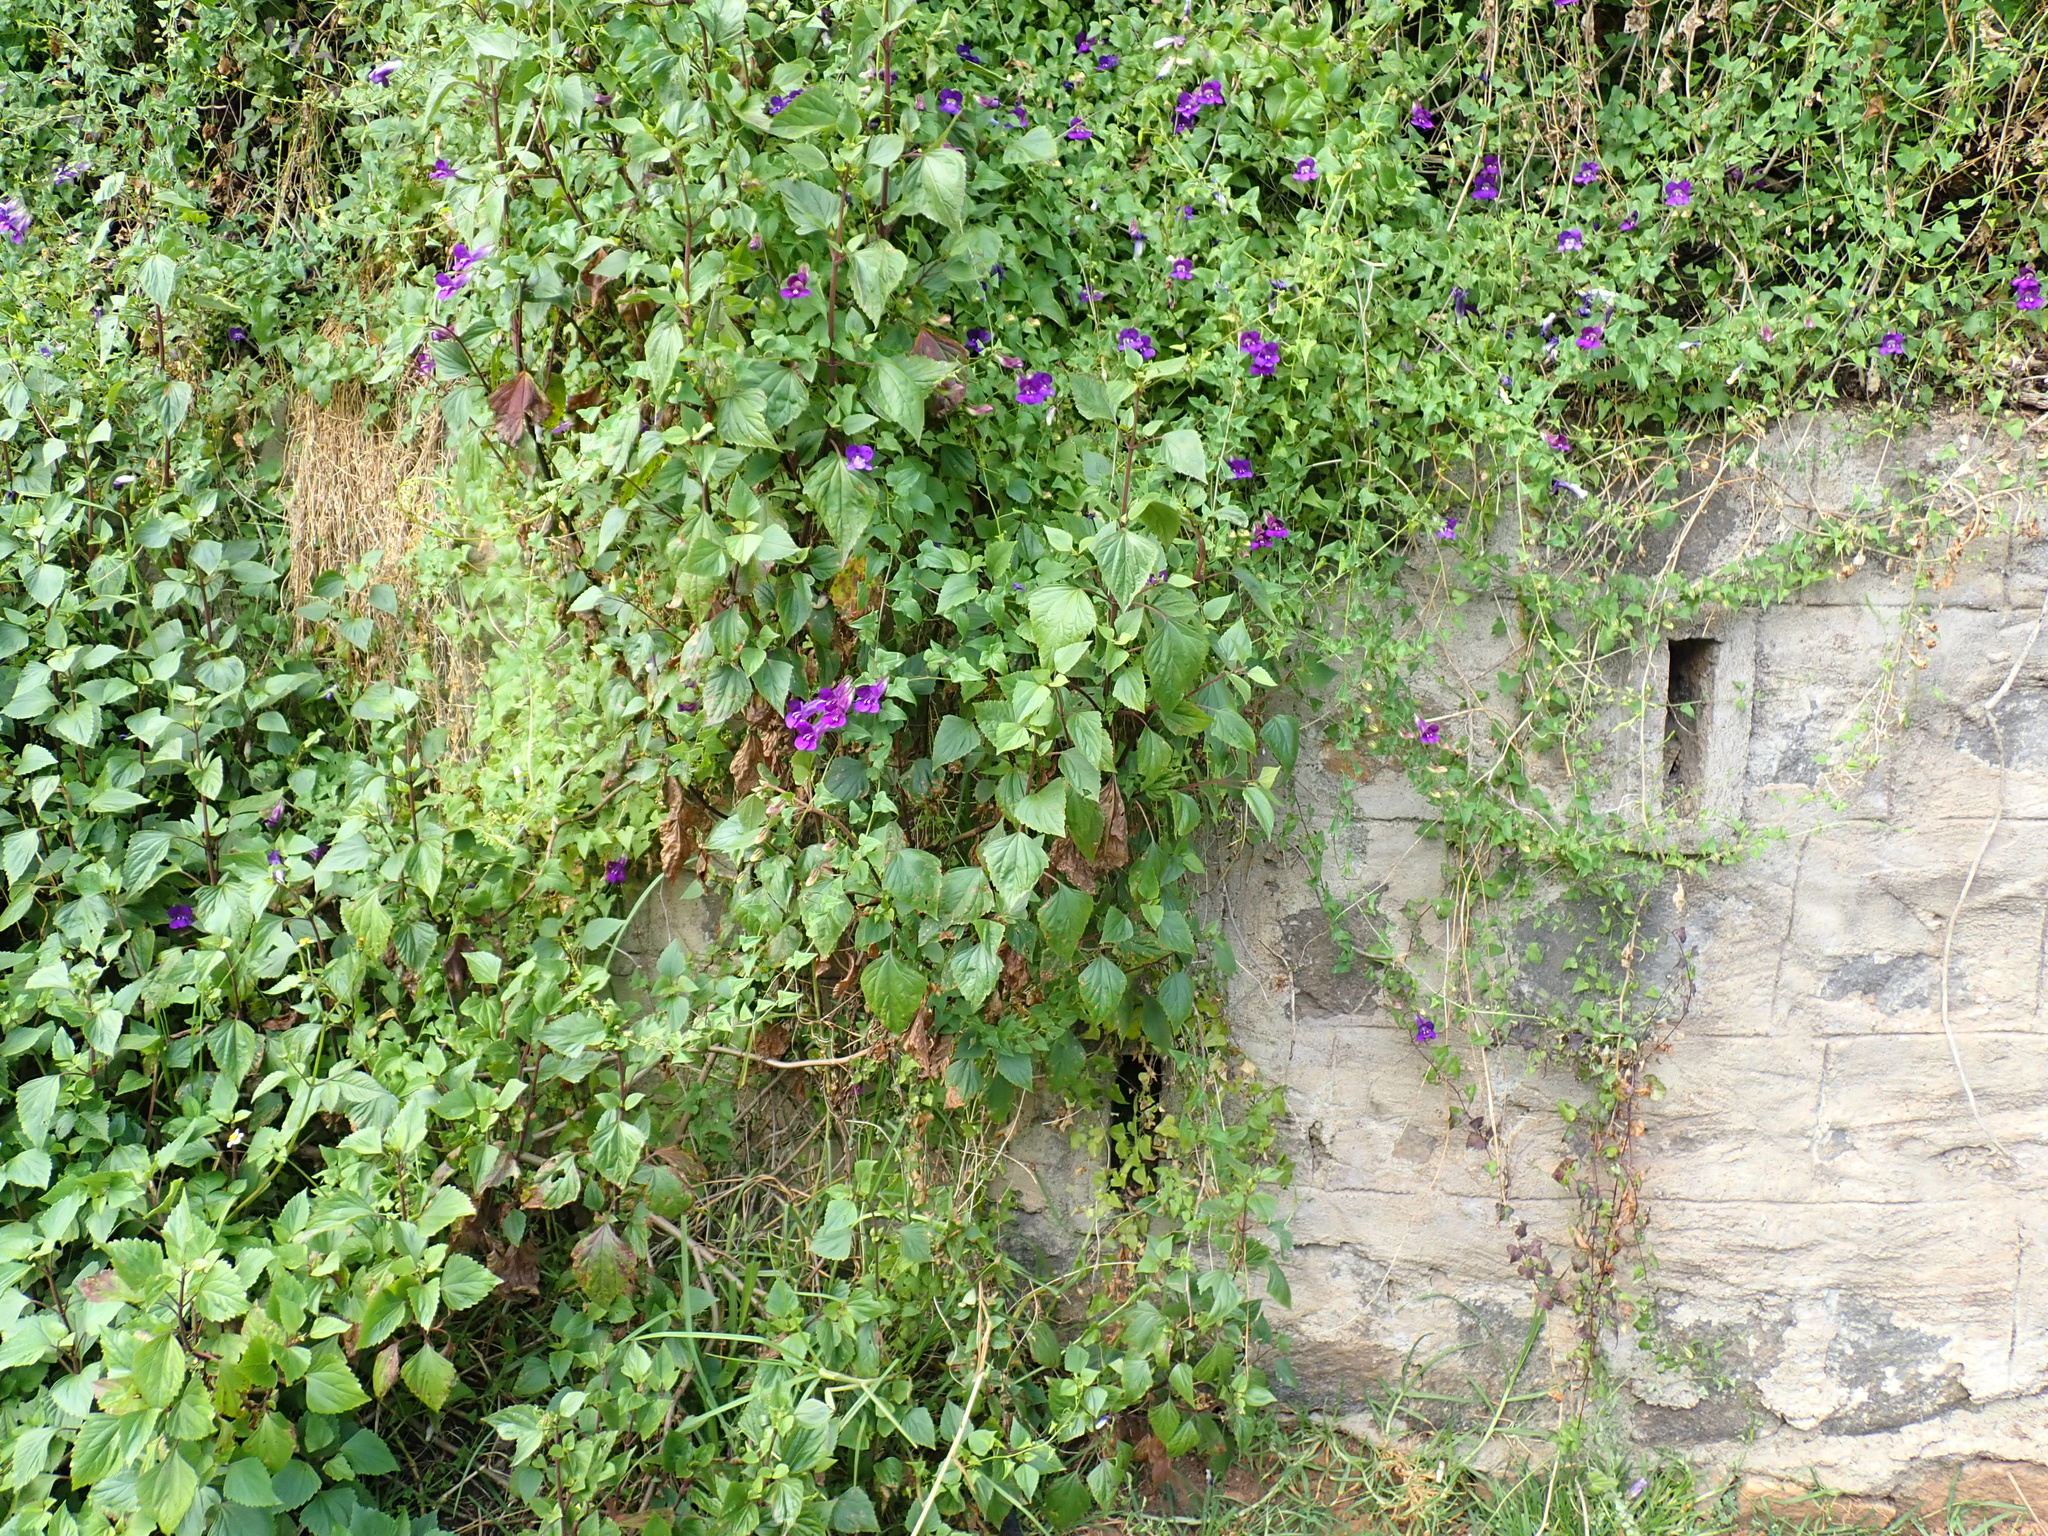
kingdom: Plantae
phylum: Tracheophyta
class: Magnoliopsida
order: Lamiales
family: Plantaginaceae
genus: Maurandya
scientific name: Maurandya barclayana
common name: Mexican viper
